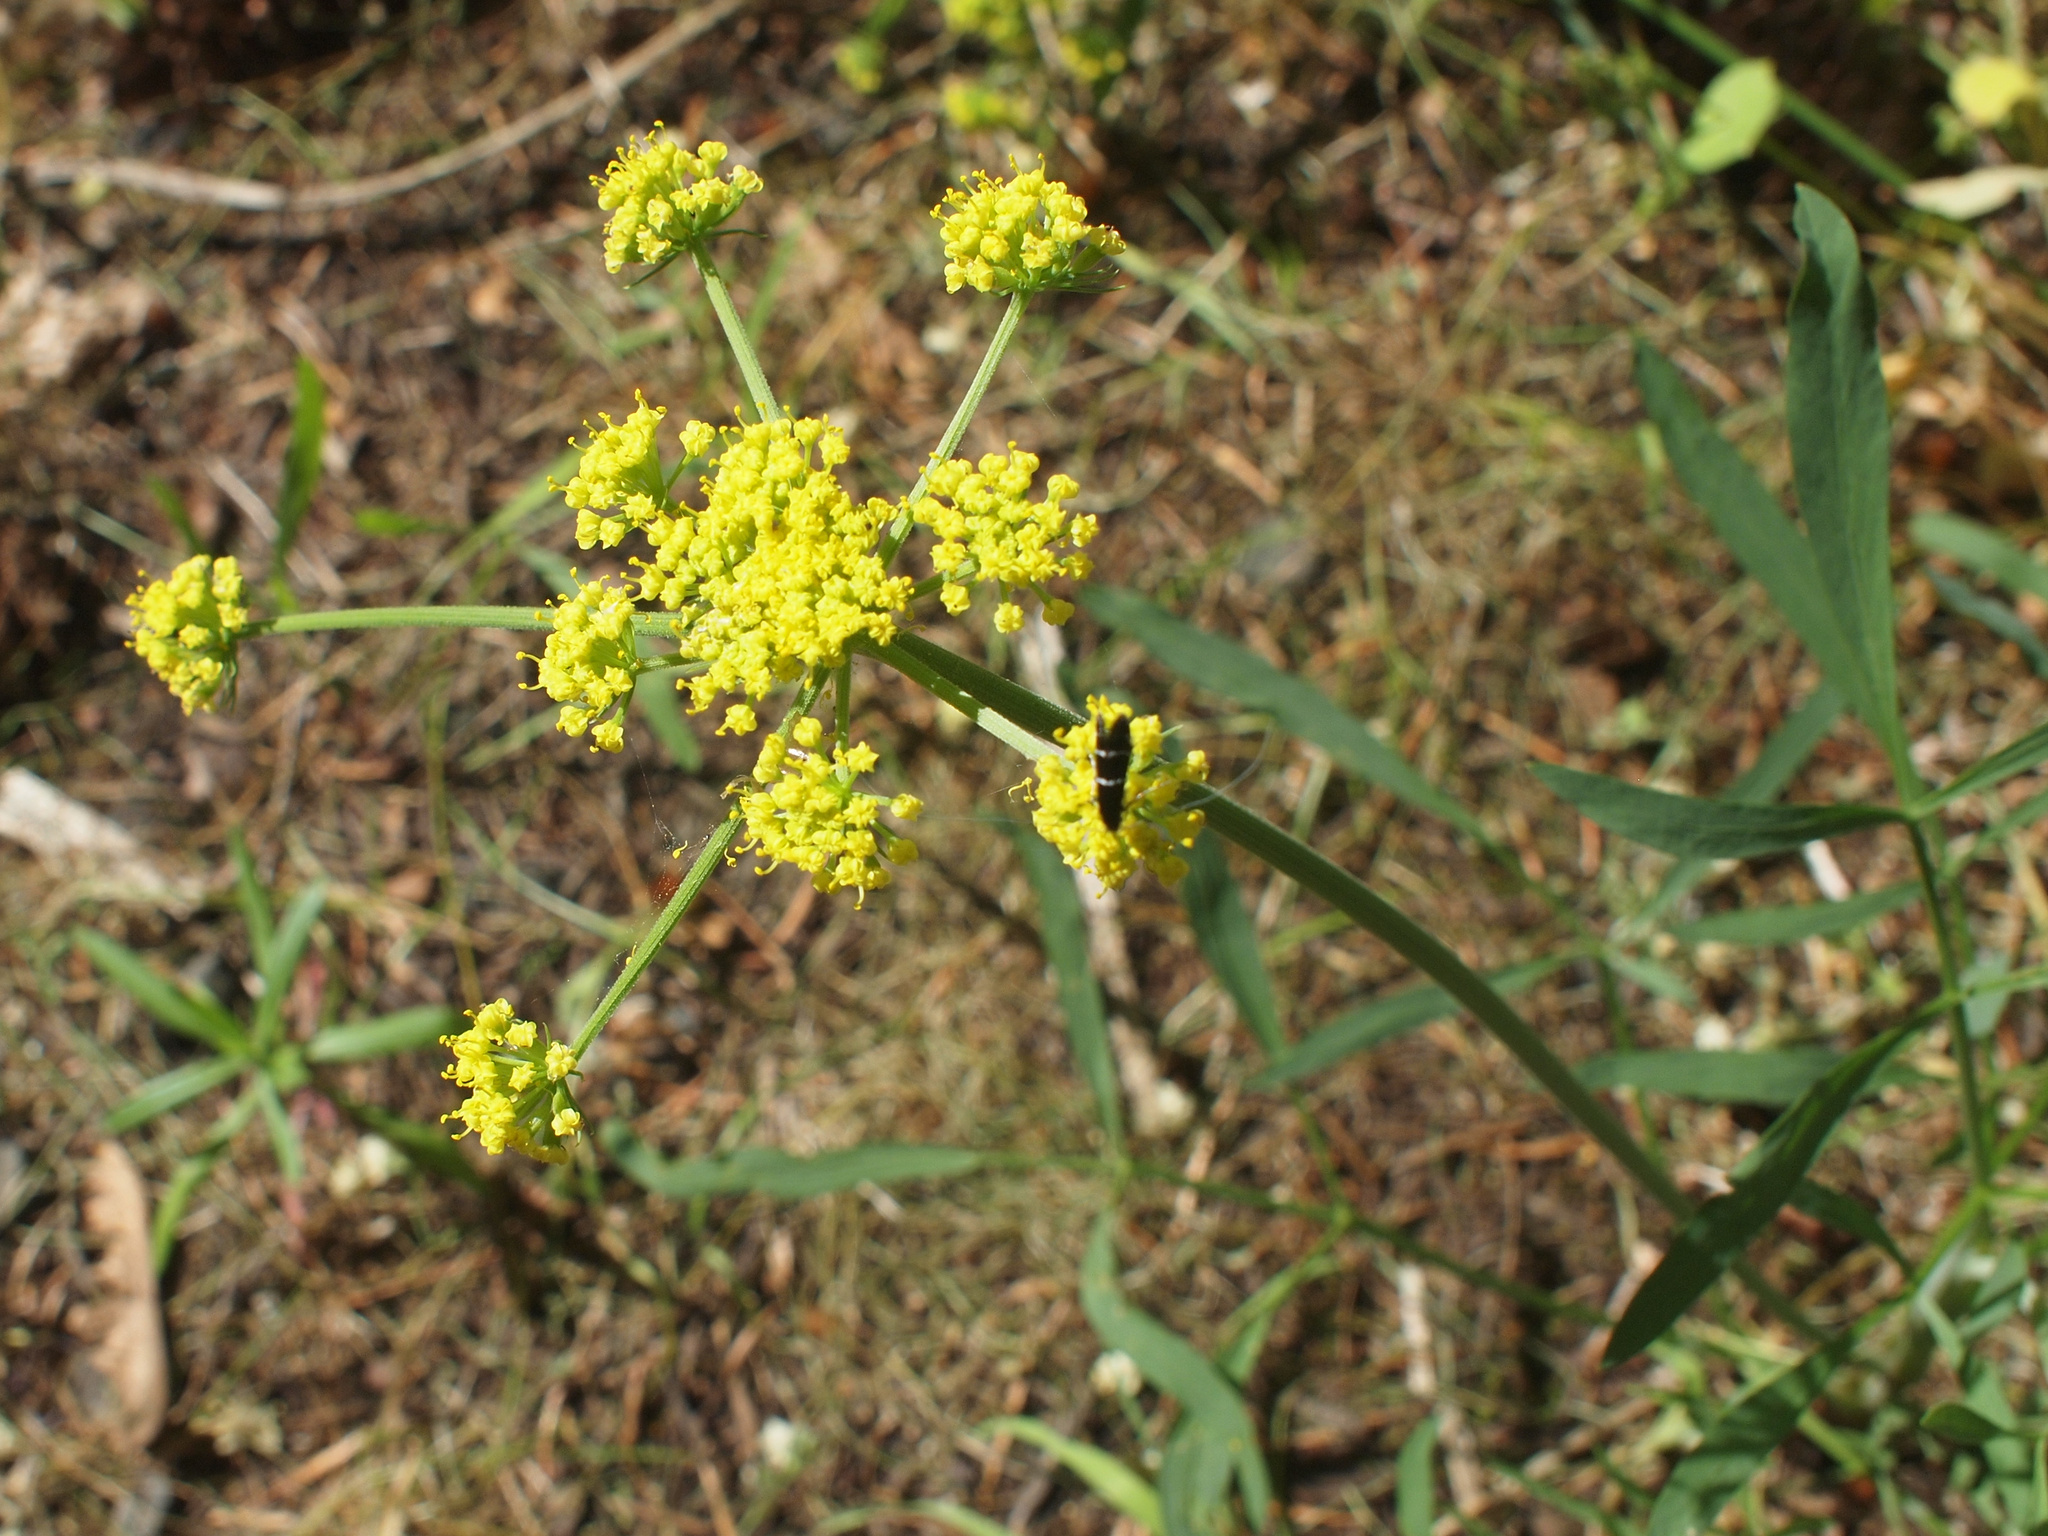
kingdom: Plantae
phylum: Tracheophyta
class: Magnoliopsida
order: Apiales
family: Apiaceae
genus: Lomatium
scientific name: Lomatium triternatum
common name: Ternate lomatium
